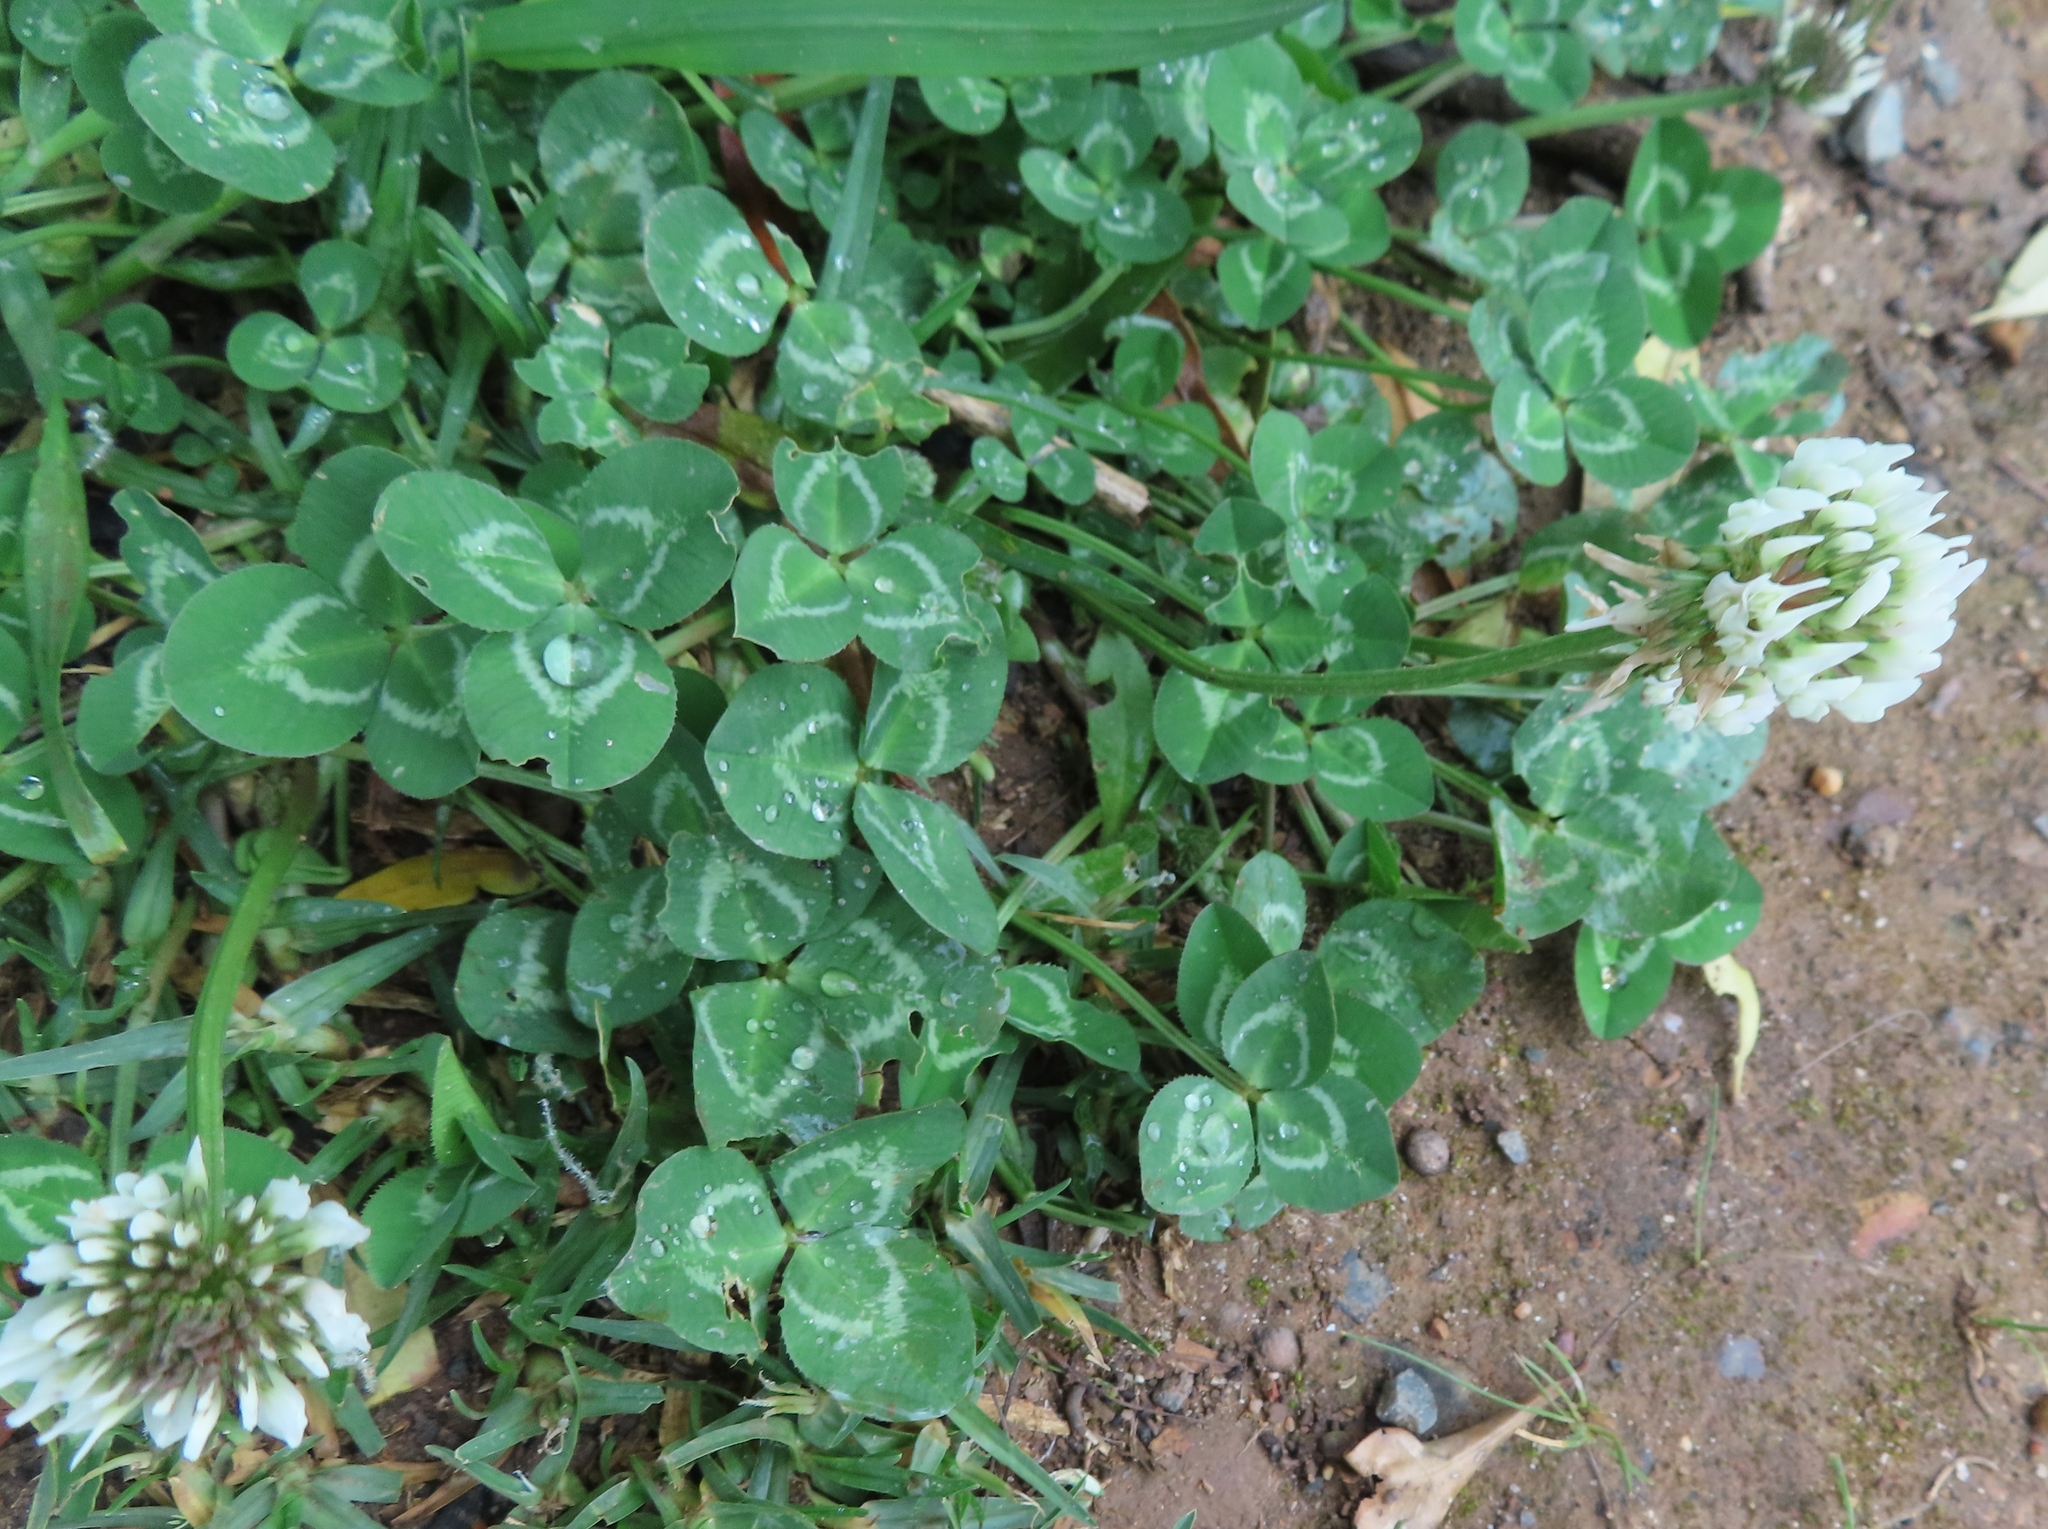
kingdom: Plantae
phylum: Tracheophyta
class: Magnoliopsida
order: Fabales
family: Fabaceae
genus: Trifolium
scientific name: Trifolium repens
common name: White clover
